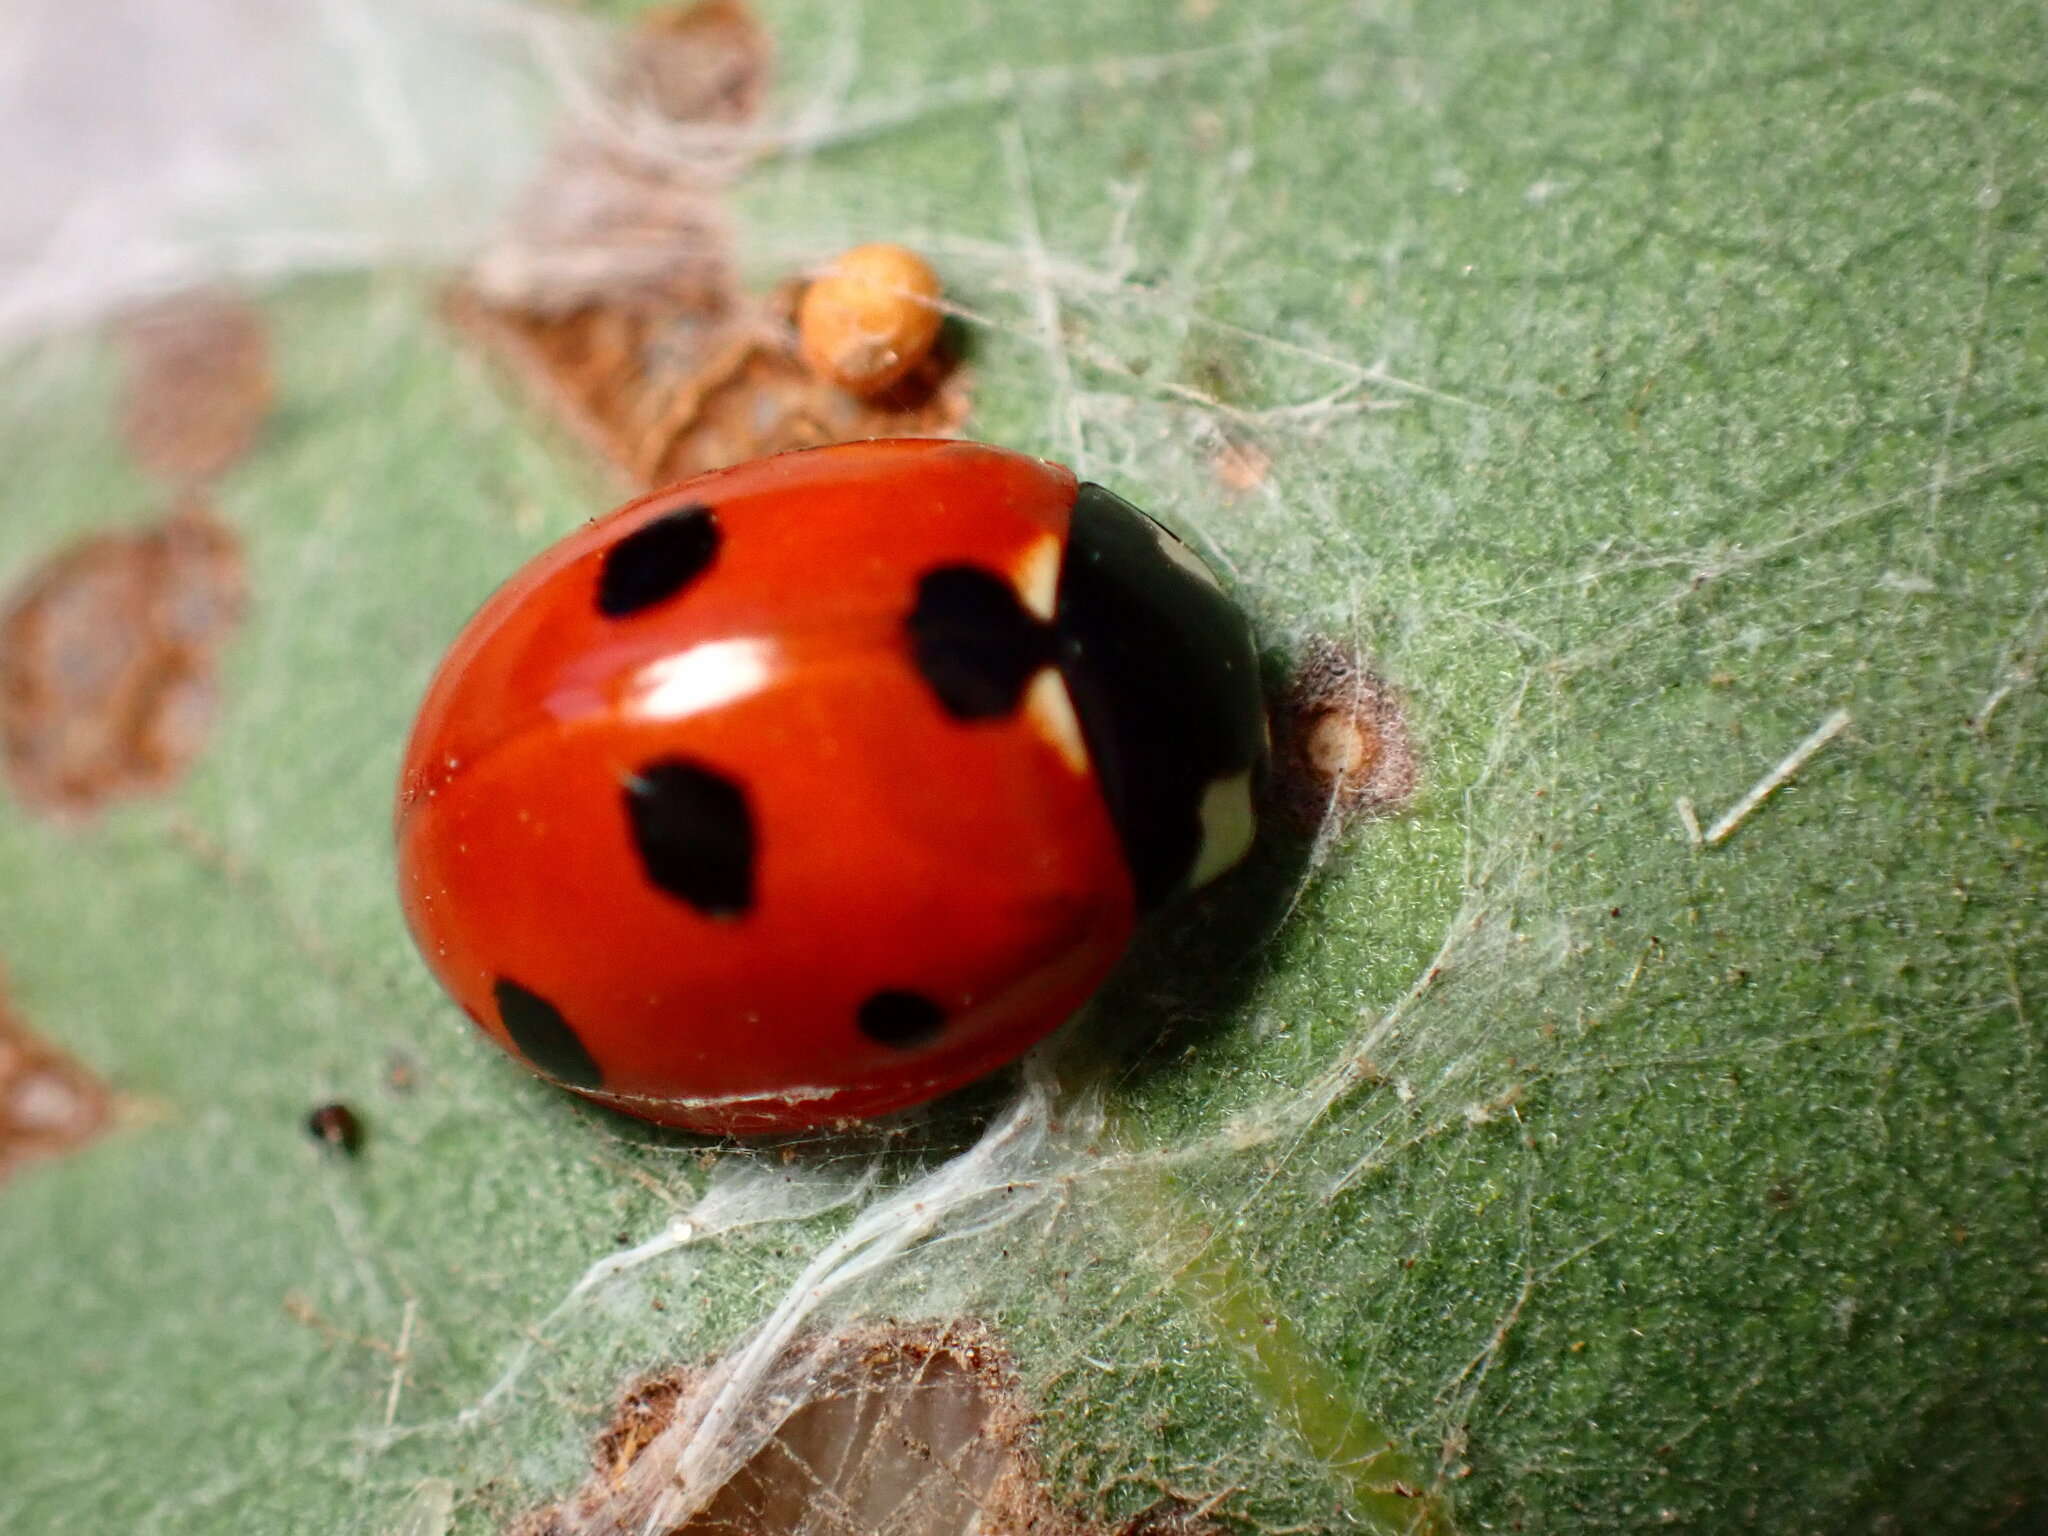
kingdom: Animalia
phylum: Arthropoda
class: Insecta
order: Coleoptera
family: Coccinellidae
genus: Coccinella
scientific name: Coccinella septempunctata
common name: Sevenspotted lady beetle
